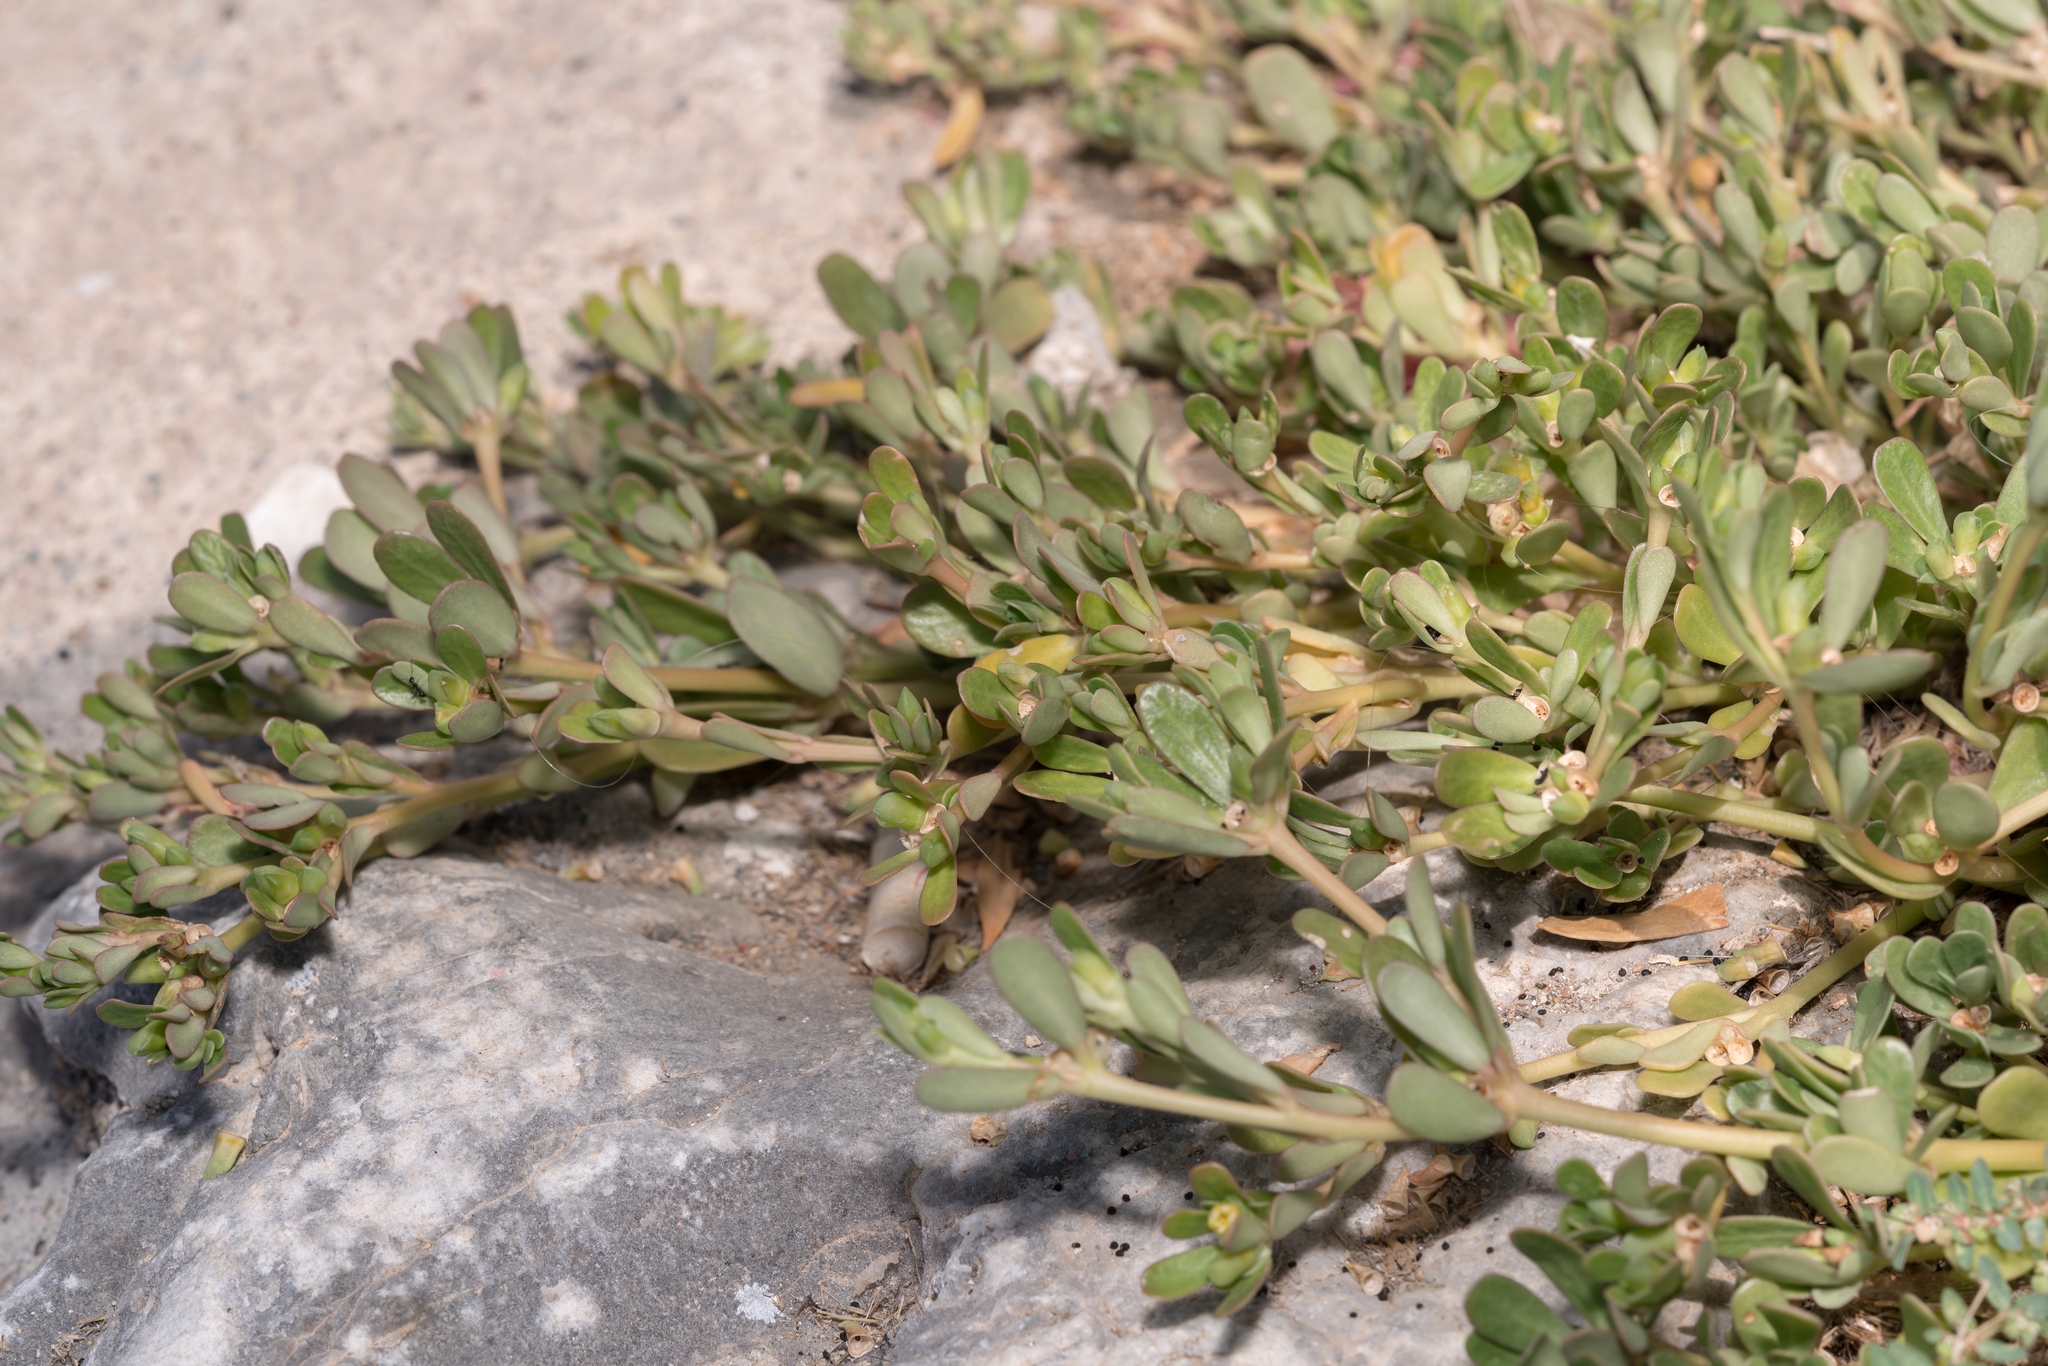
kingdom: Plantae
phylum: Tracheophyta
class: Magnoliopsida
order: Caryophyllales
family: Portulacaceae
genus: Portulaca
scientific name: Portulaca oleracea
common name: Common purslane
